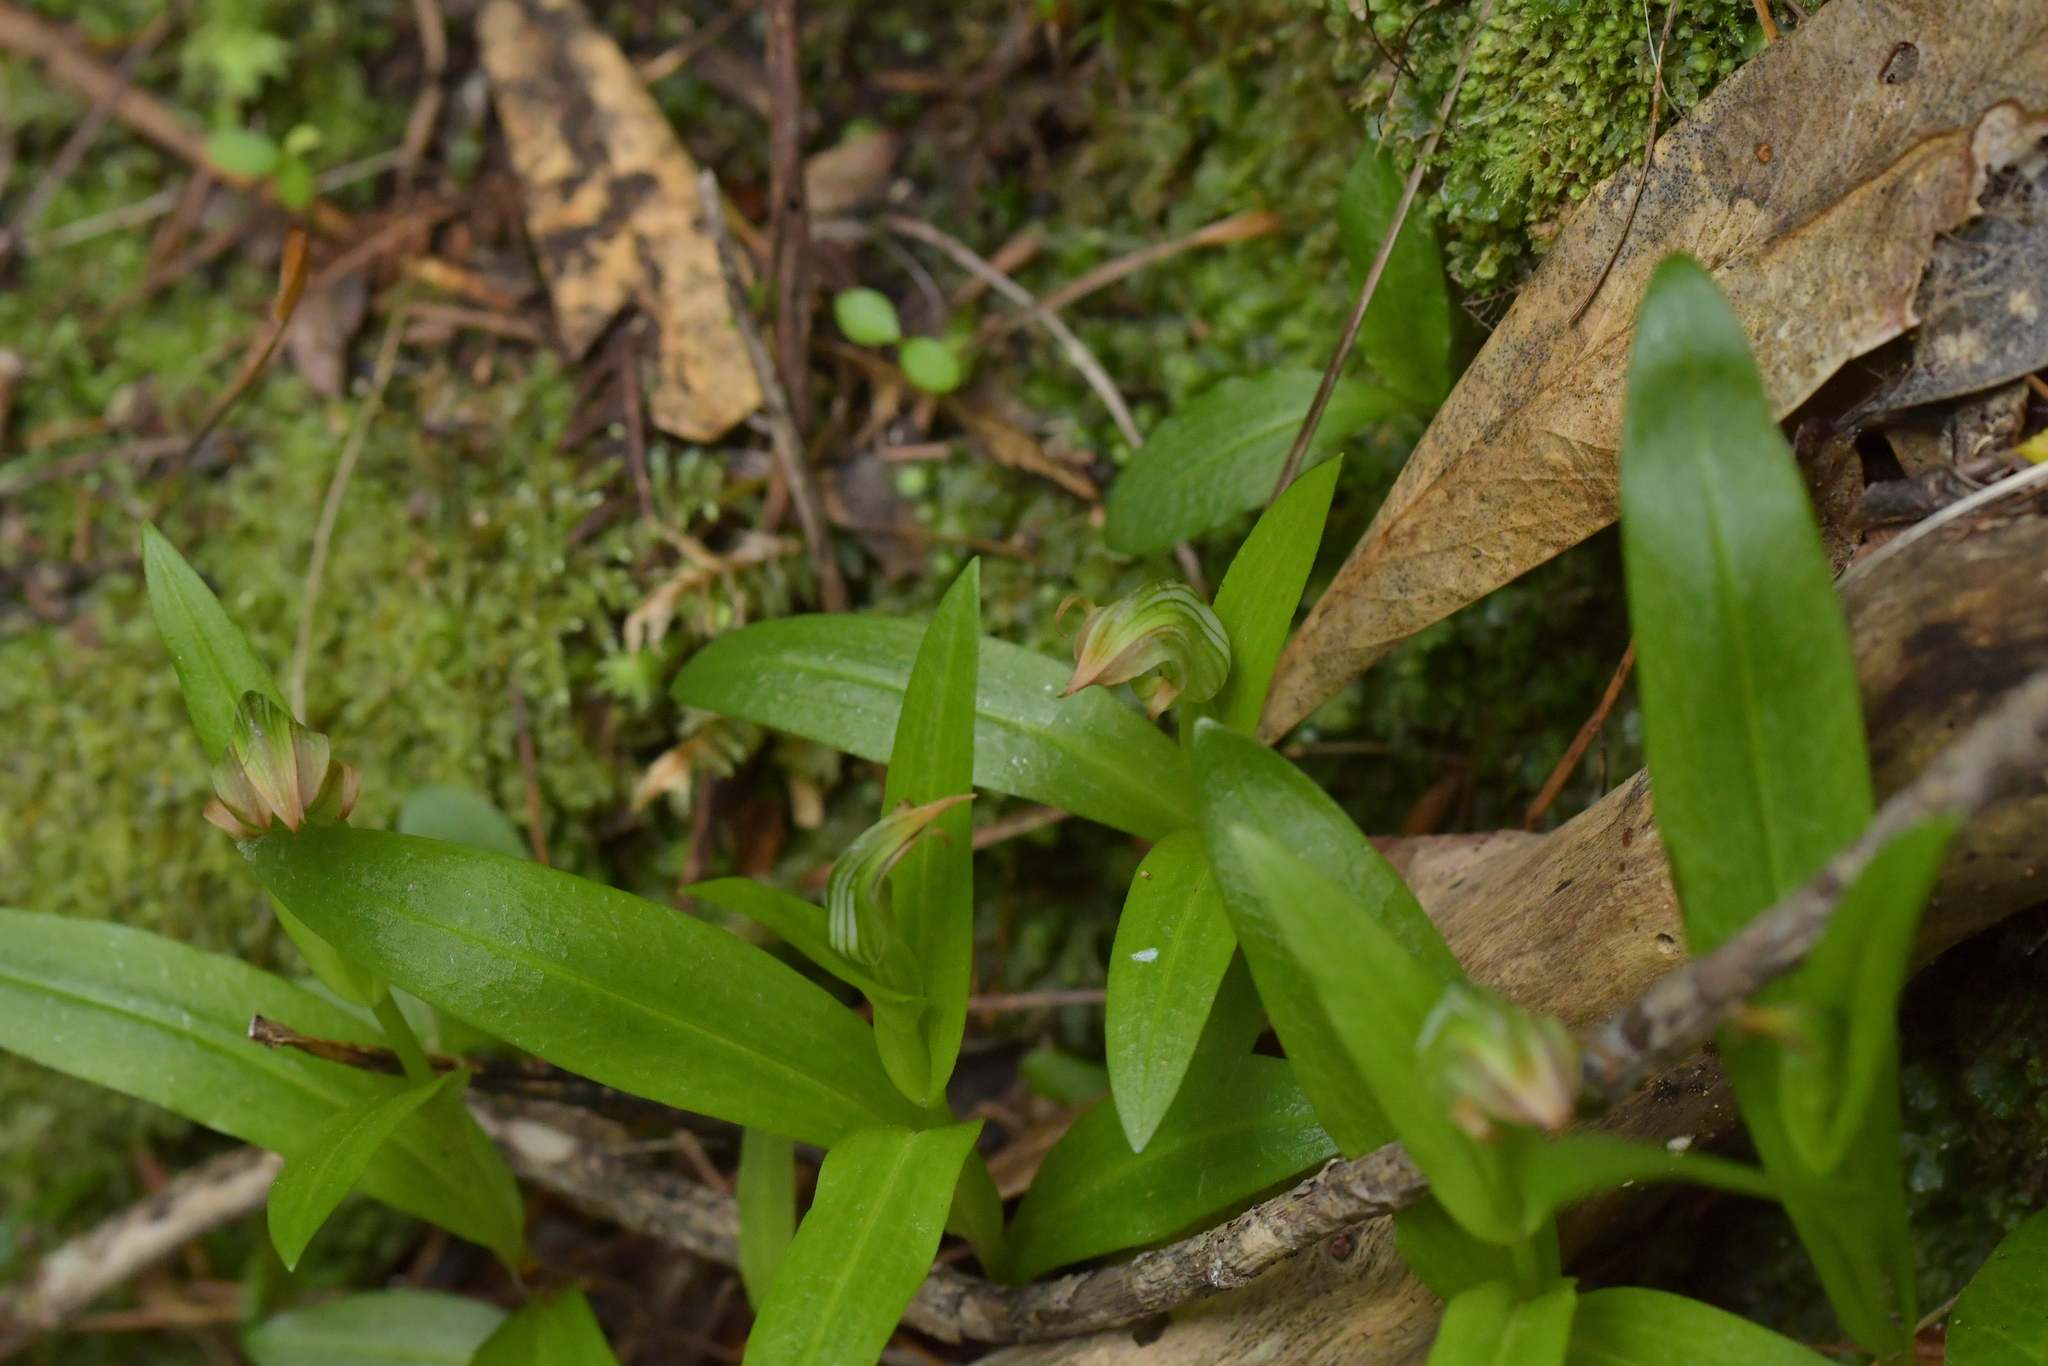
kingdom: Plantae
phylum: Tracheophyta
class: Liliopsida
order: Asparagales
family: Orchidaceae
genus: Pterostylis
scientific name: Pterostylis silvicultrix
